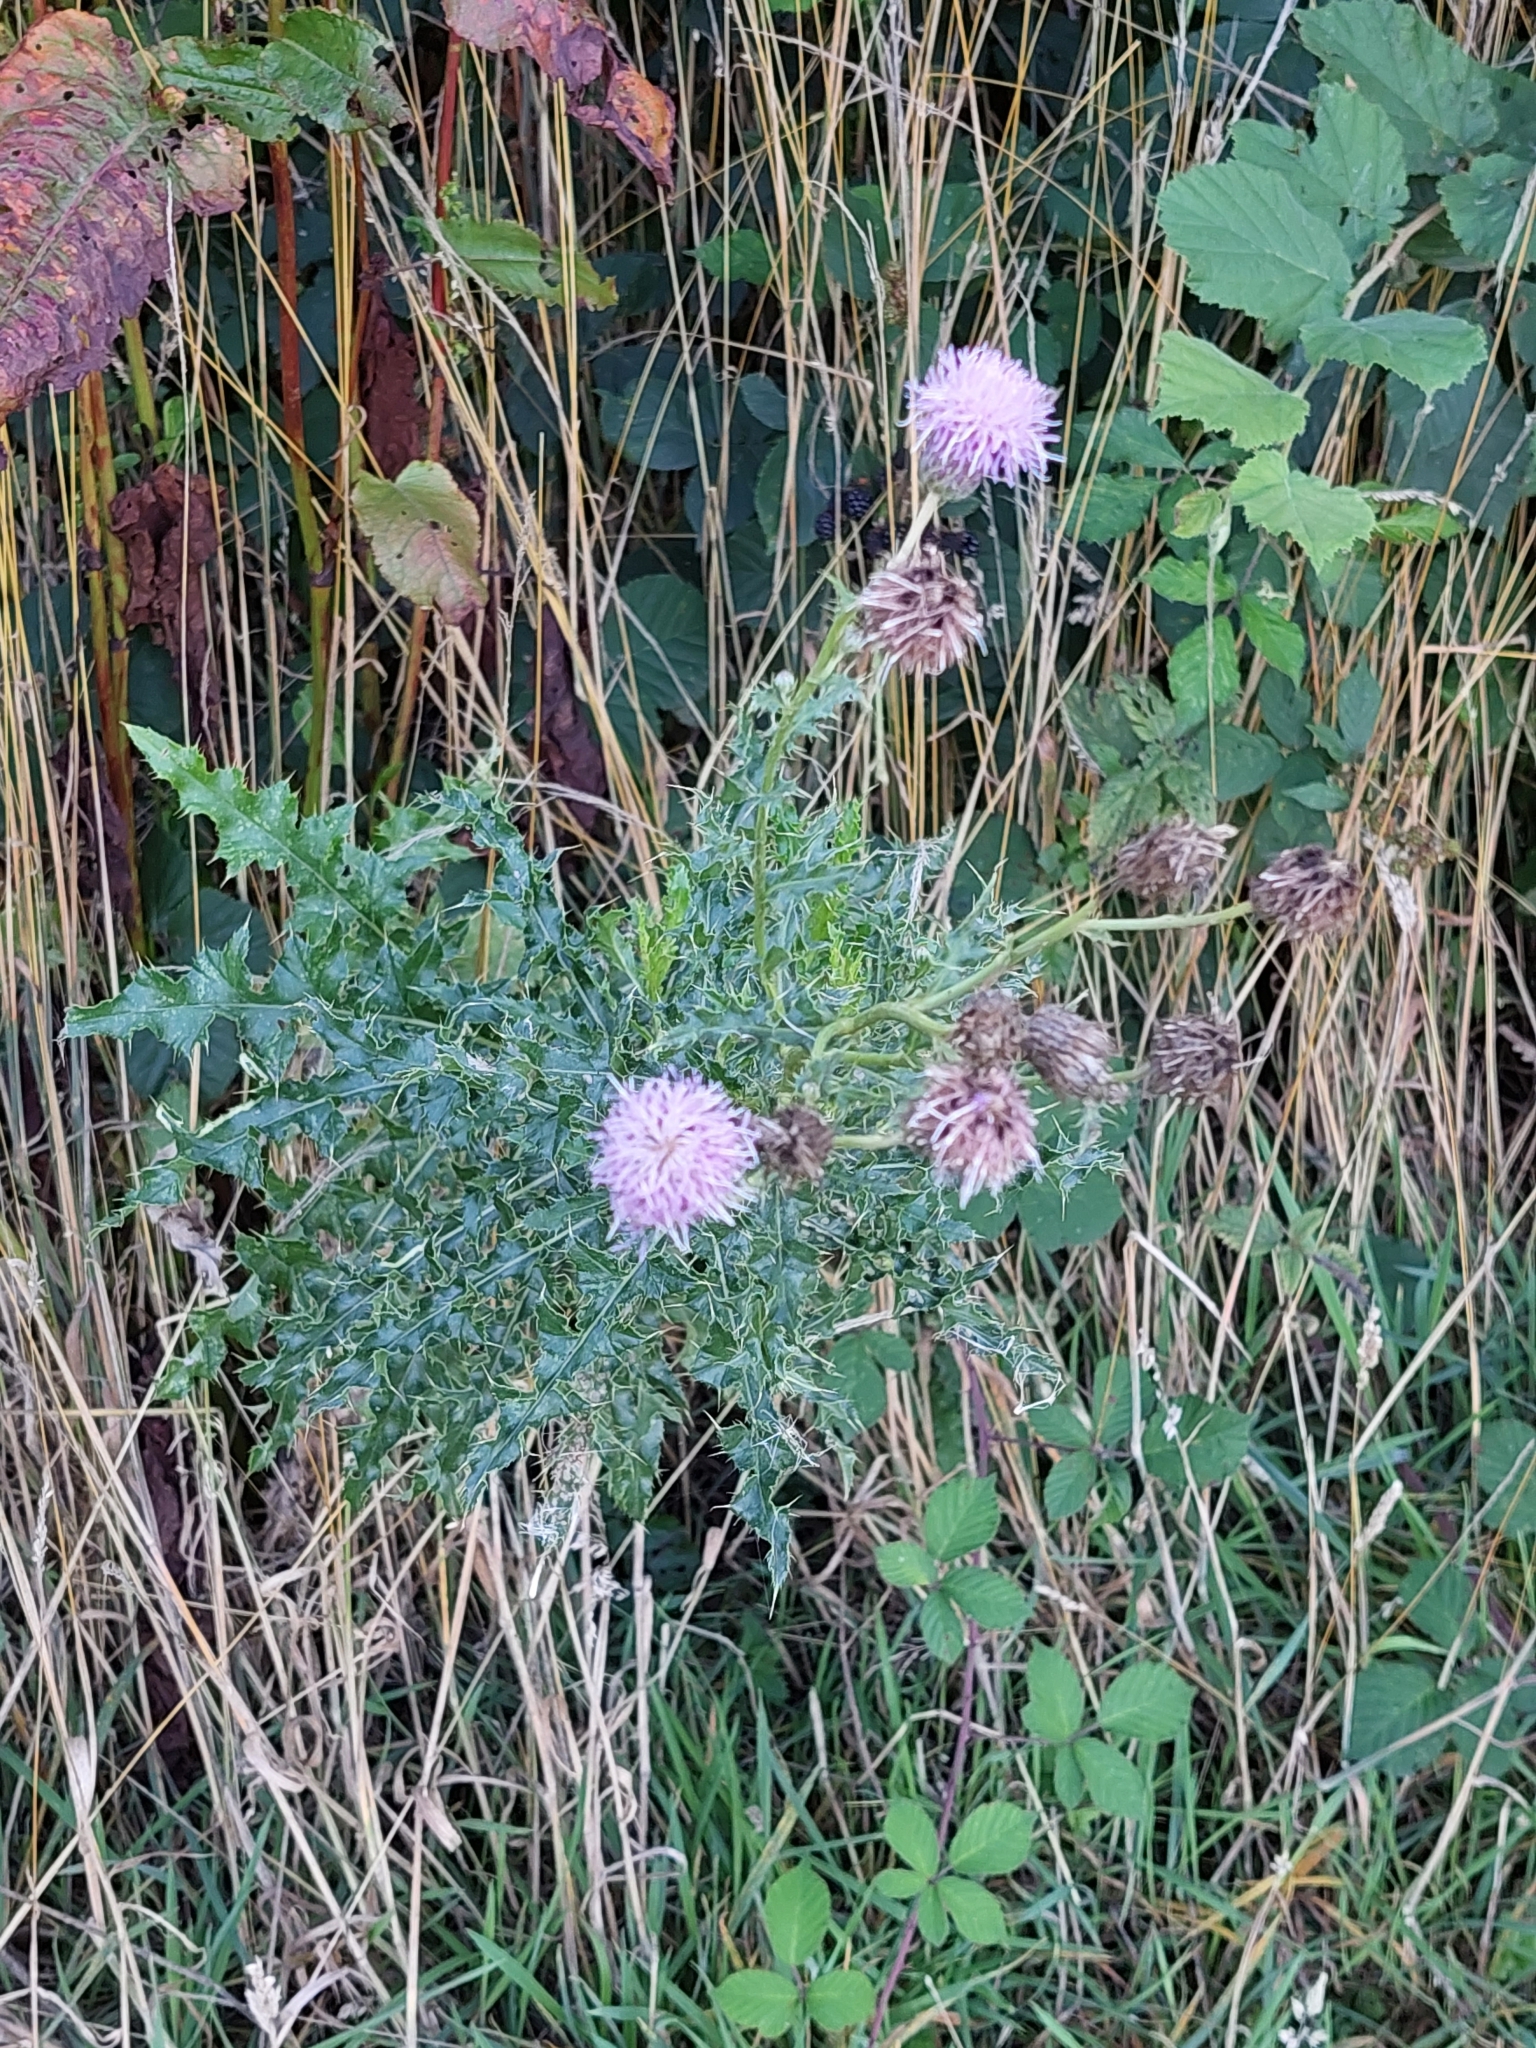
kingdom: Plantae
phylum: Tracheophyta
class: Magnoliopsida
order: Asterales
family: Asteraceae
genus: Cirsium
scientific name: Cirsium arvense
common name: Creeping thistle
